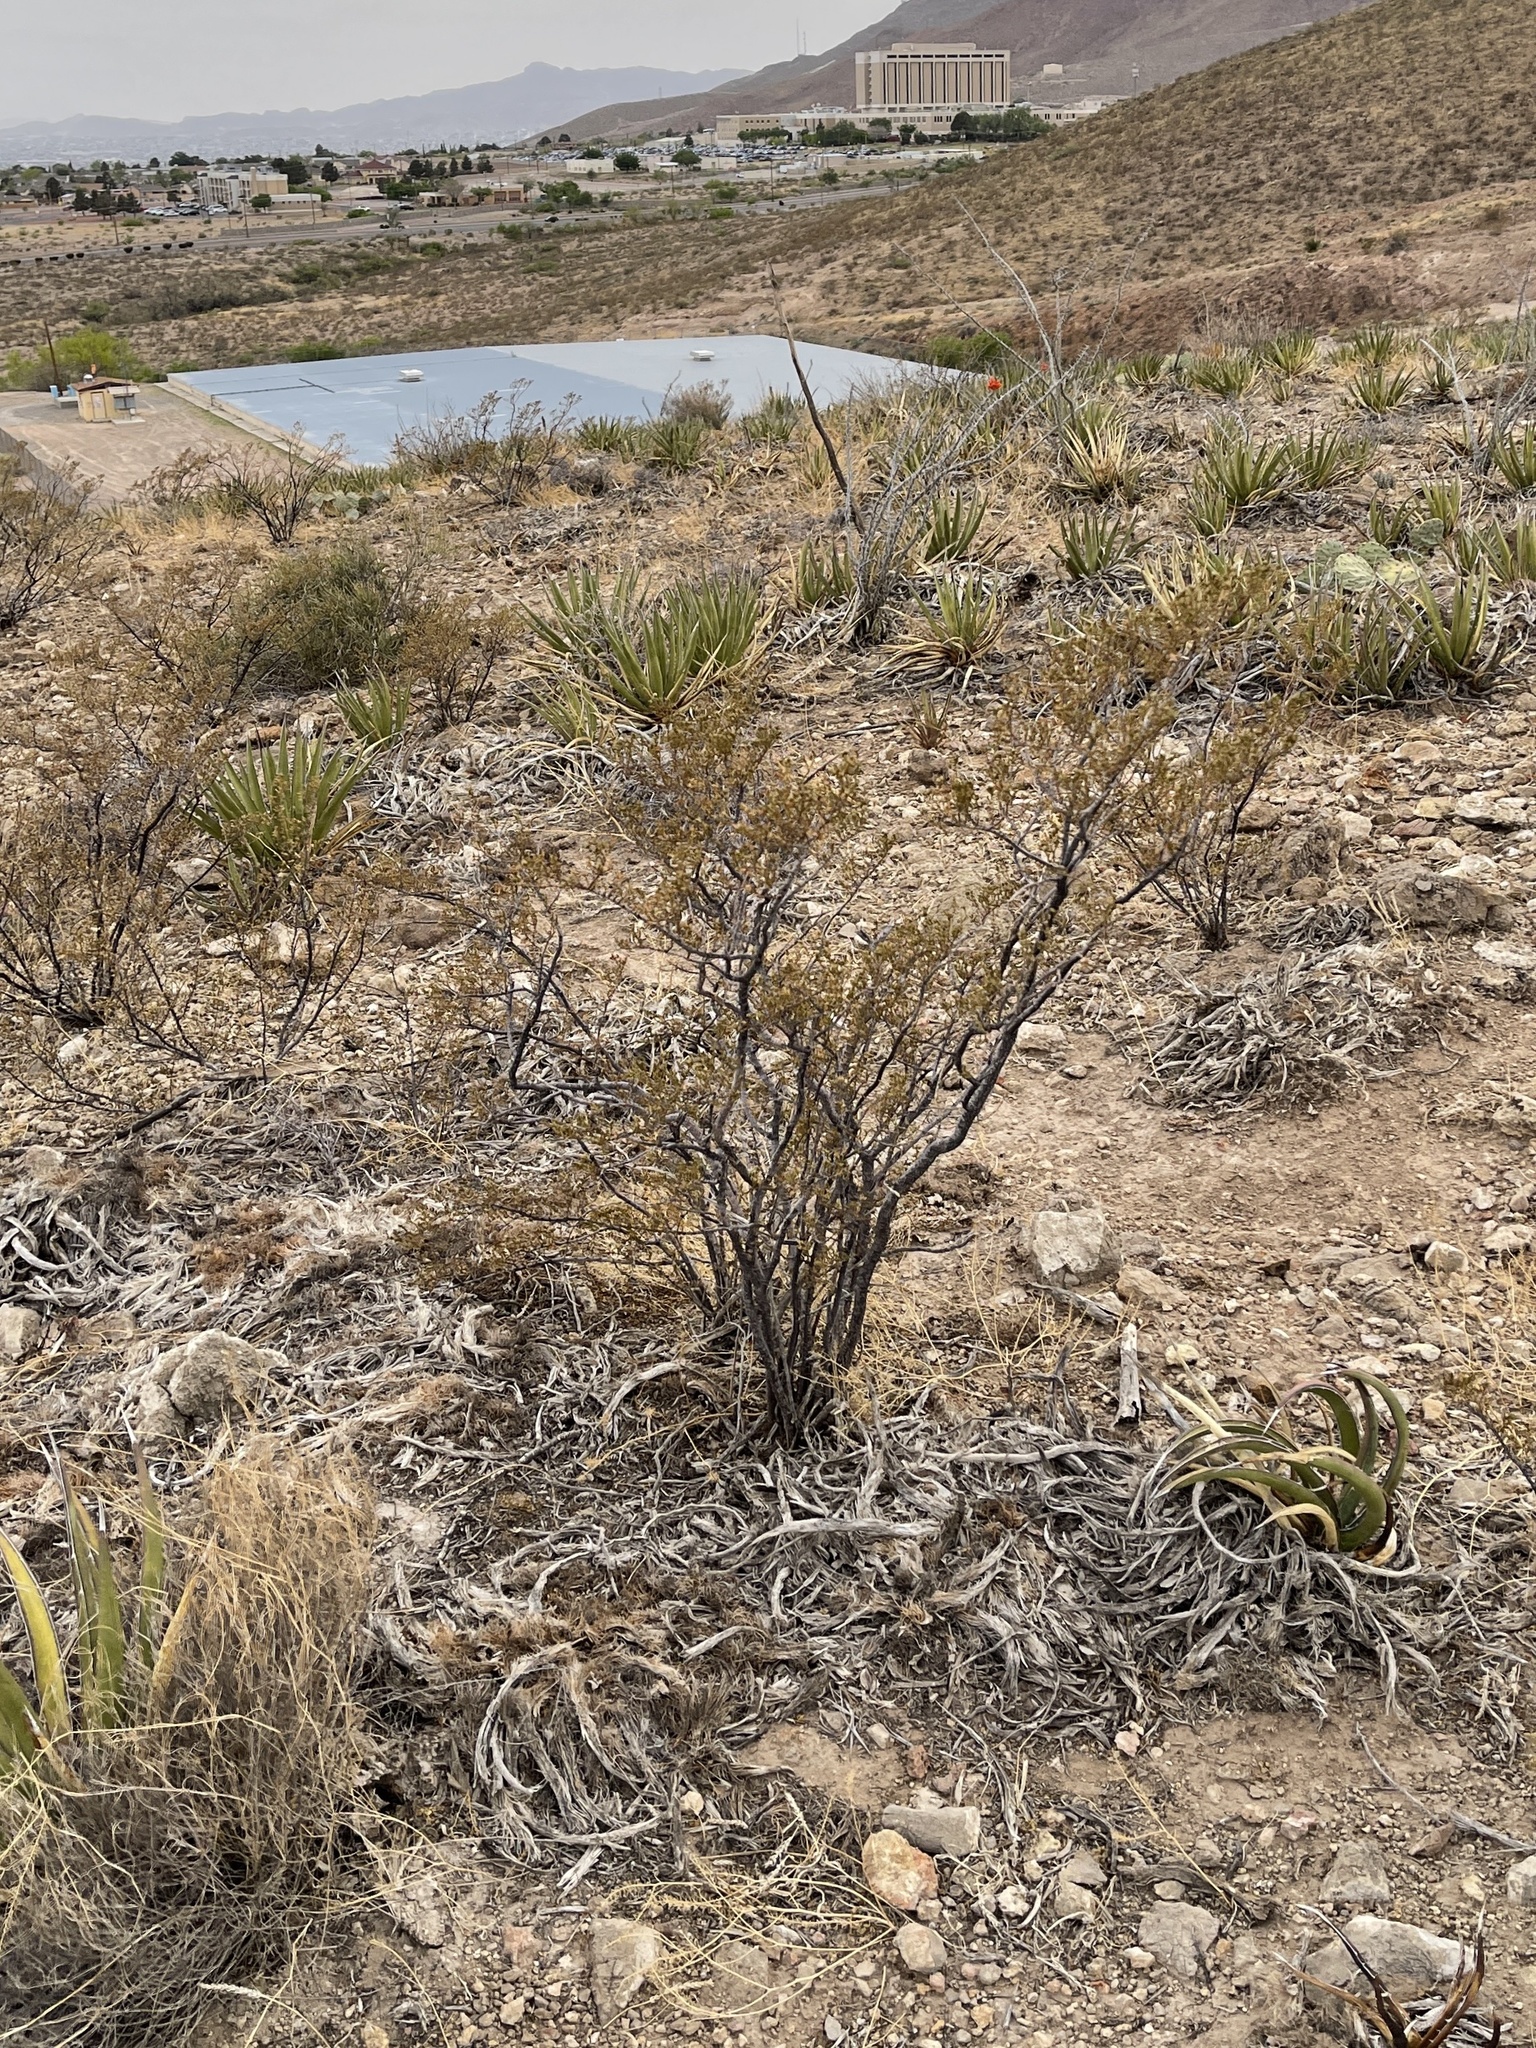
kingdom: Plantae
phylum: Tracheophyta
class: Magnoliopsida
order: Zygophyllales
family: Zygophyllaceae
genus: Larrea
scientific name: Larrea tridentata
